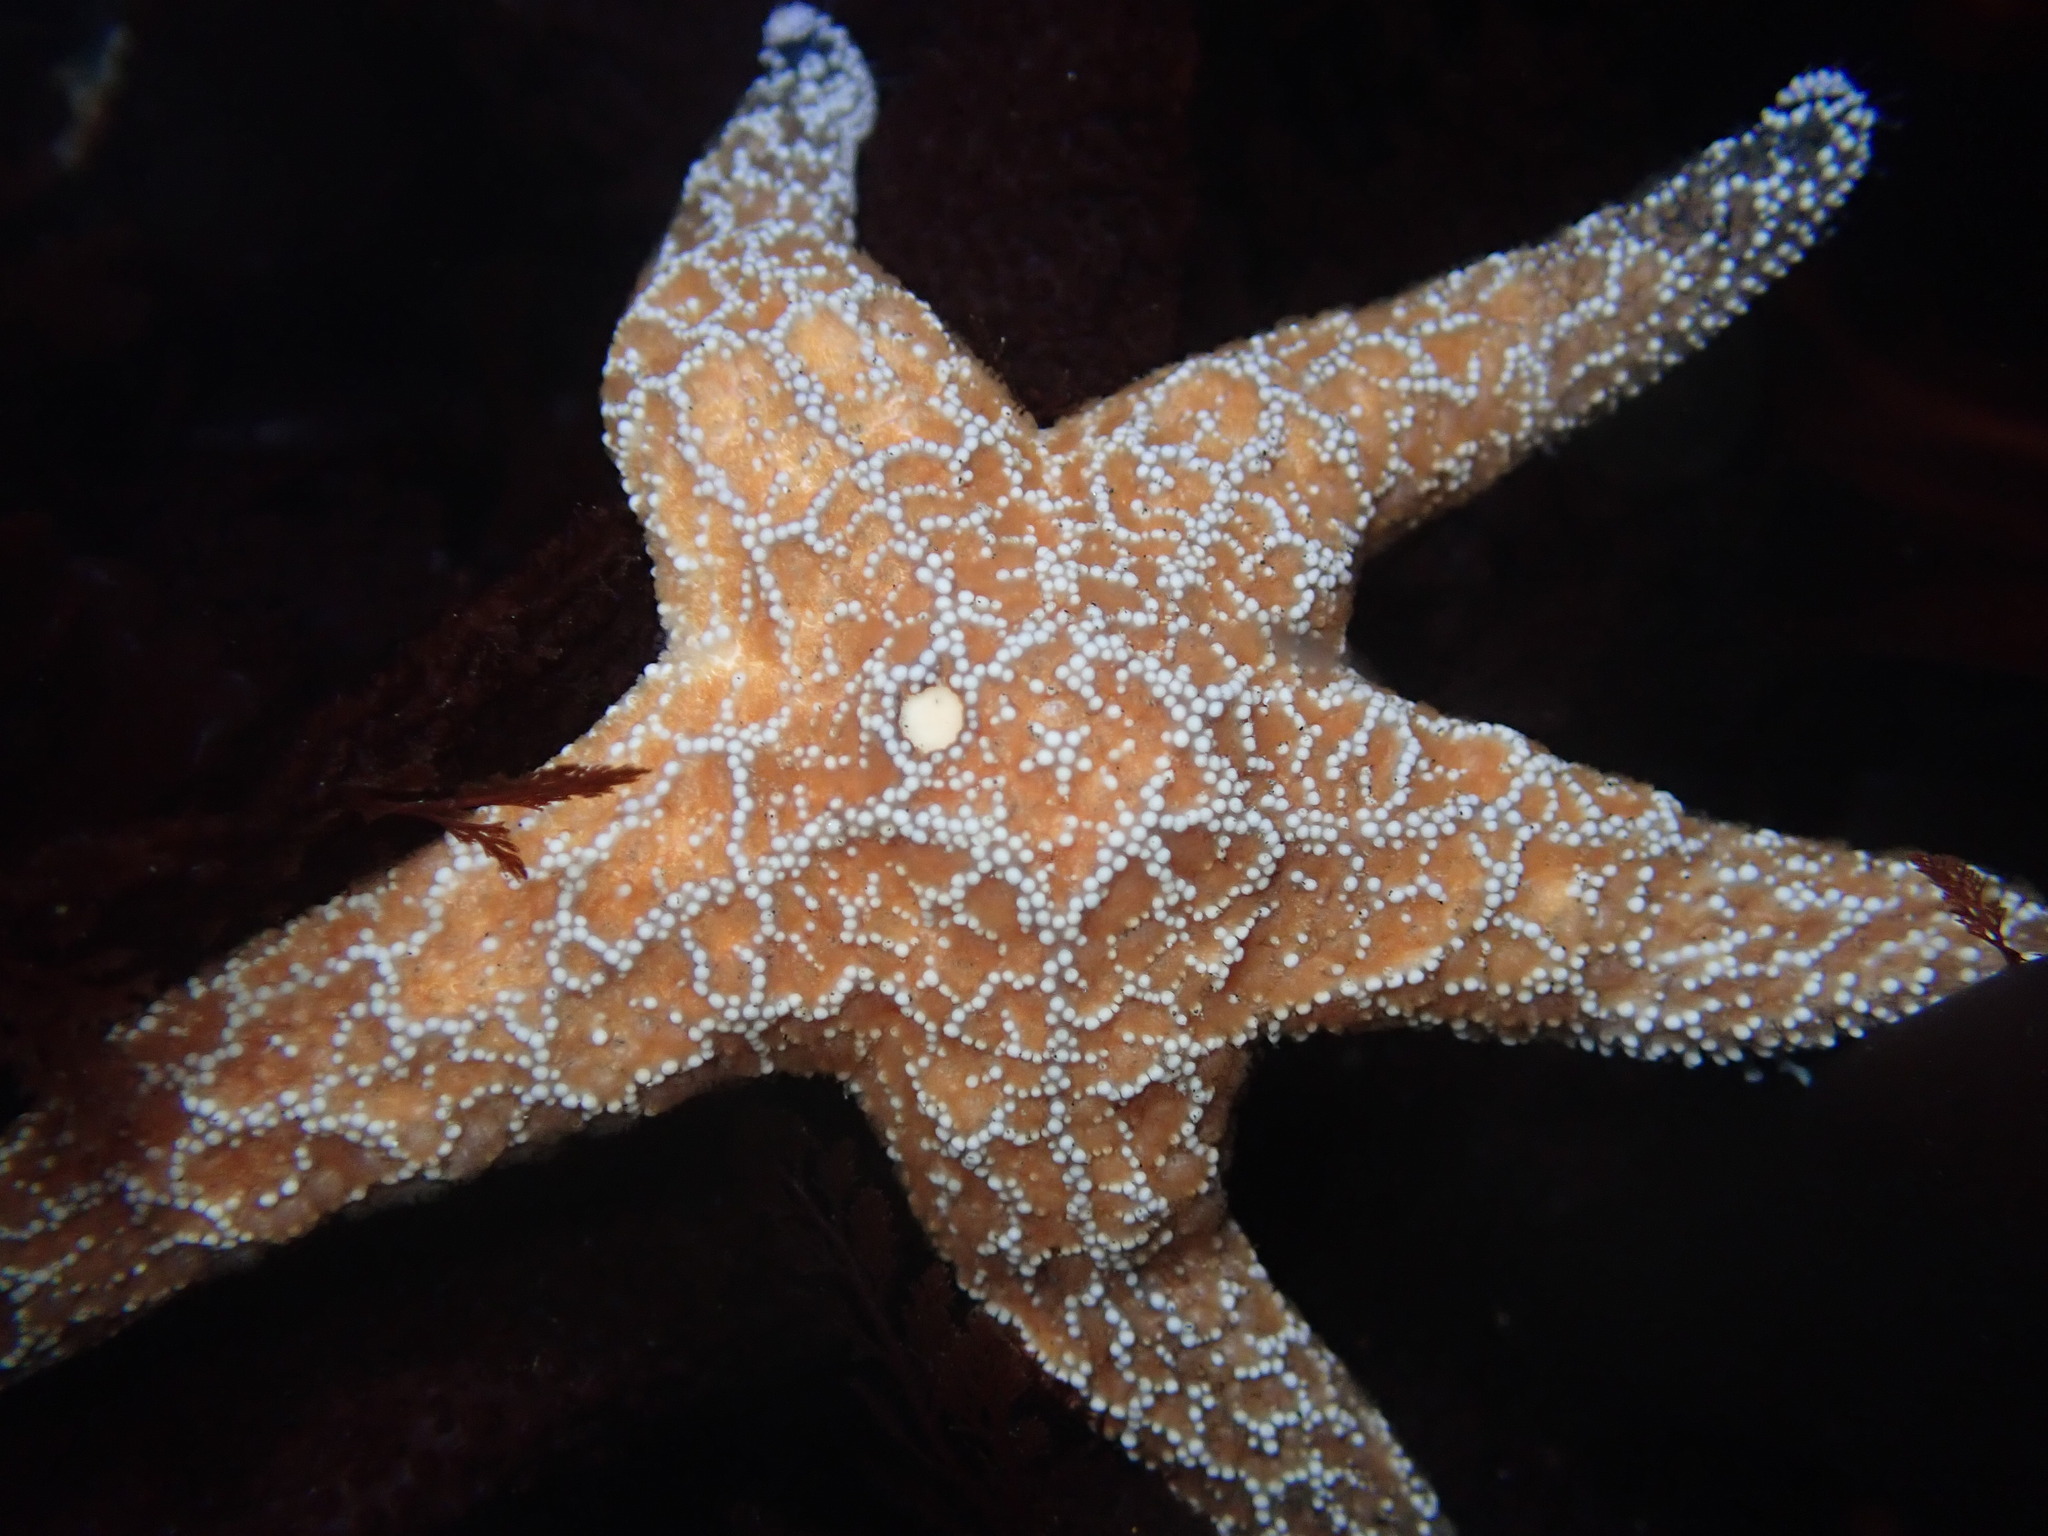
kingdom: Animalia
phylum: Echinodermata
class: Asteroidea
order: Forcipulatida
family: Asteriidae
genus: Pisaster
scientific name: Pisaster ochraceus
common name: Ochre stars
